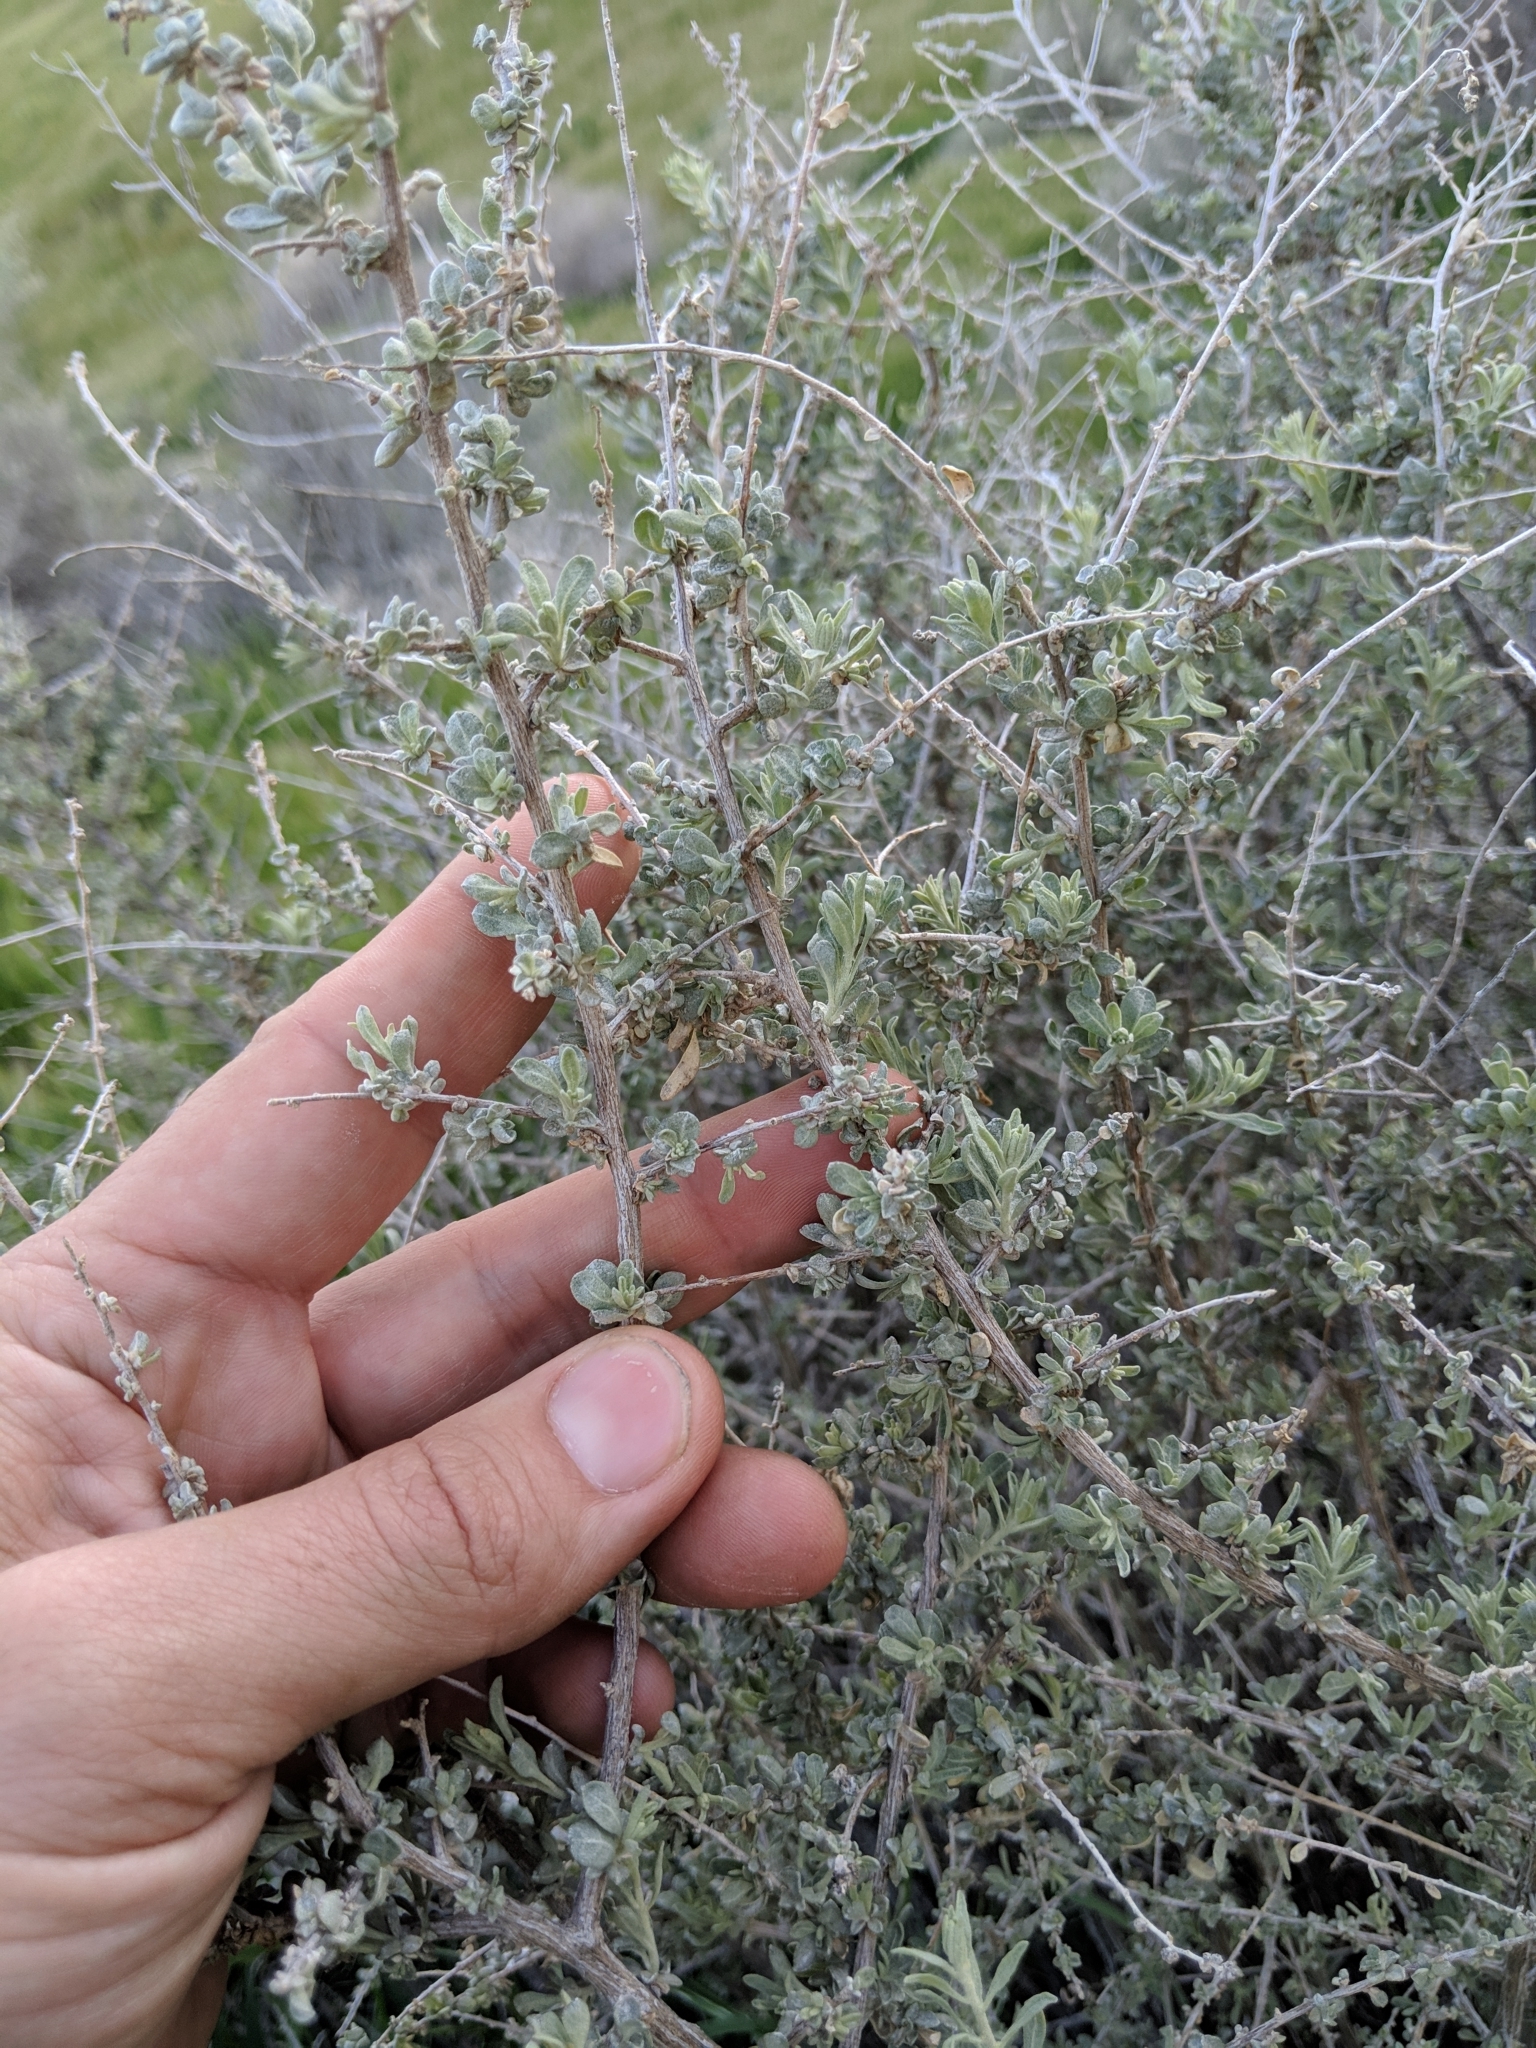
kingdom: Plantae
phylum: Tracheophyta
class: Magnoliopsida
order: Caryophyllales
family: Amaranthaceae
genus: Atriplex
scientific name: Atriplex polycarpa
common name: Desert saltbush
